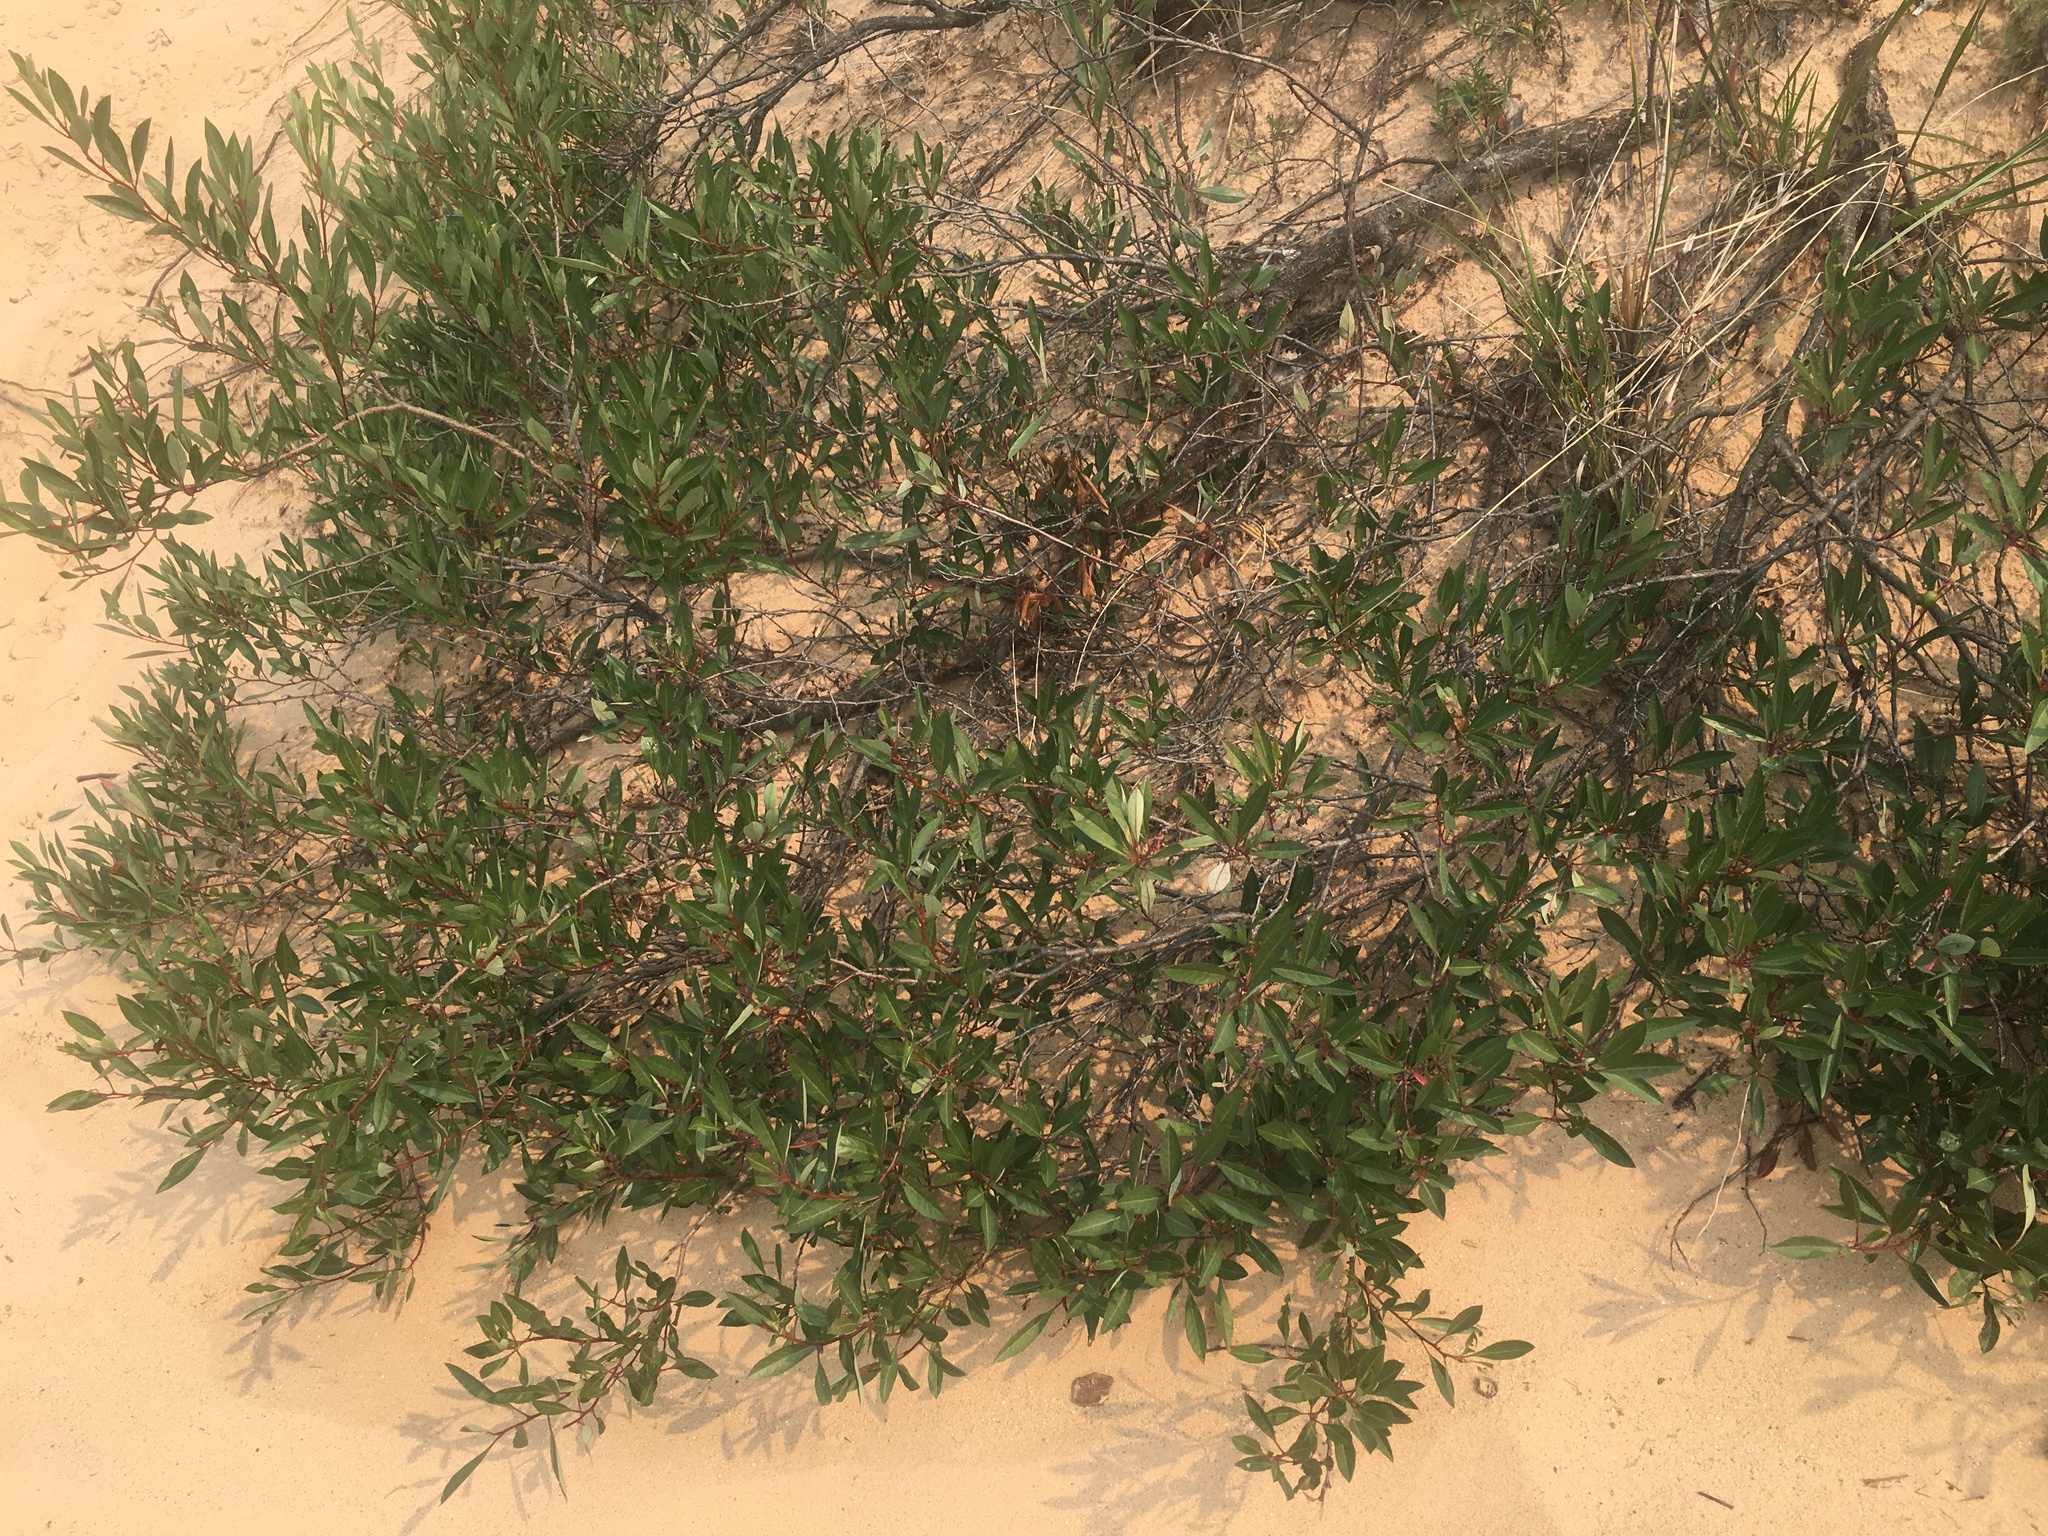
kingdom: Plantae
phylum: Tracheophyta
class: Magnoliopsida
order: Rosales
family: Rosaceae
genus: Prunus
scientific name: Prunus pumila
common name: Dwarf cherry
